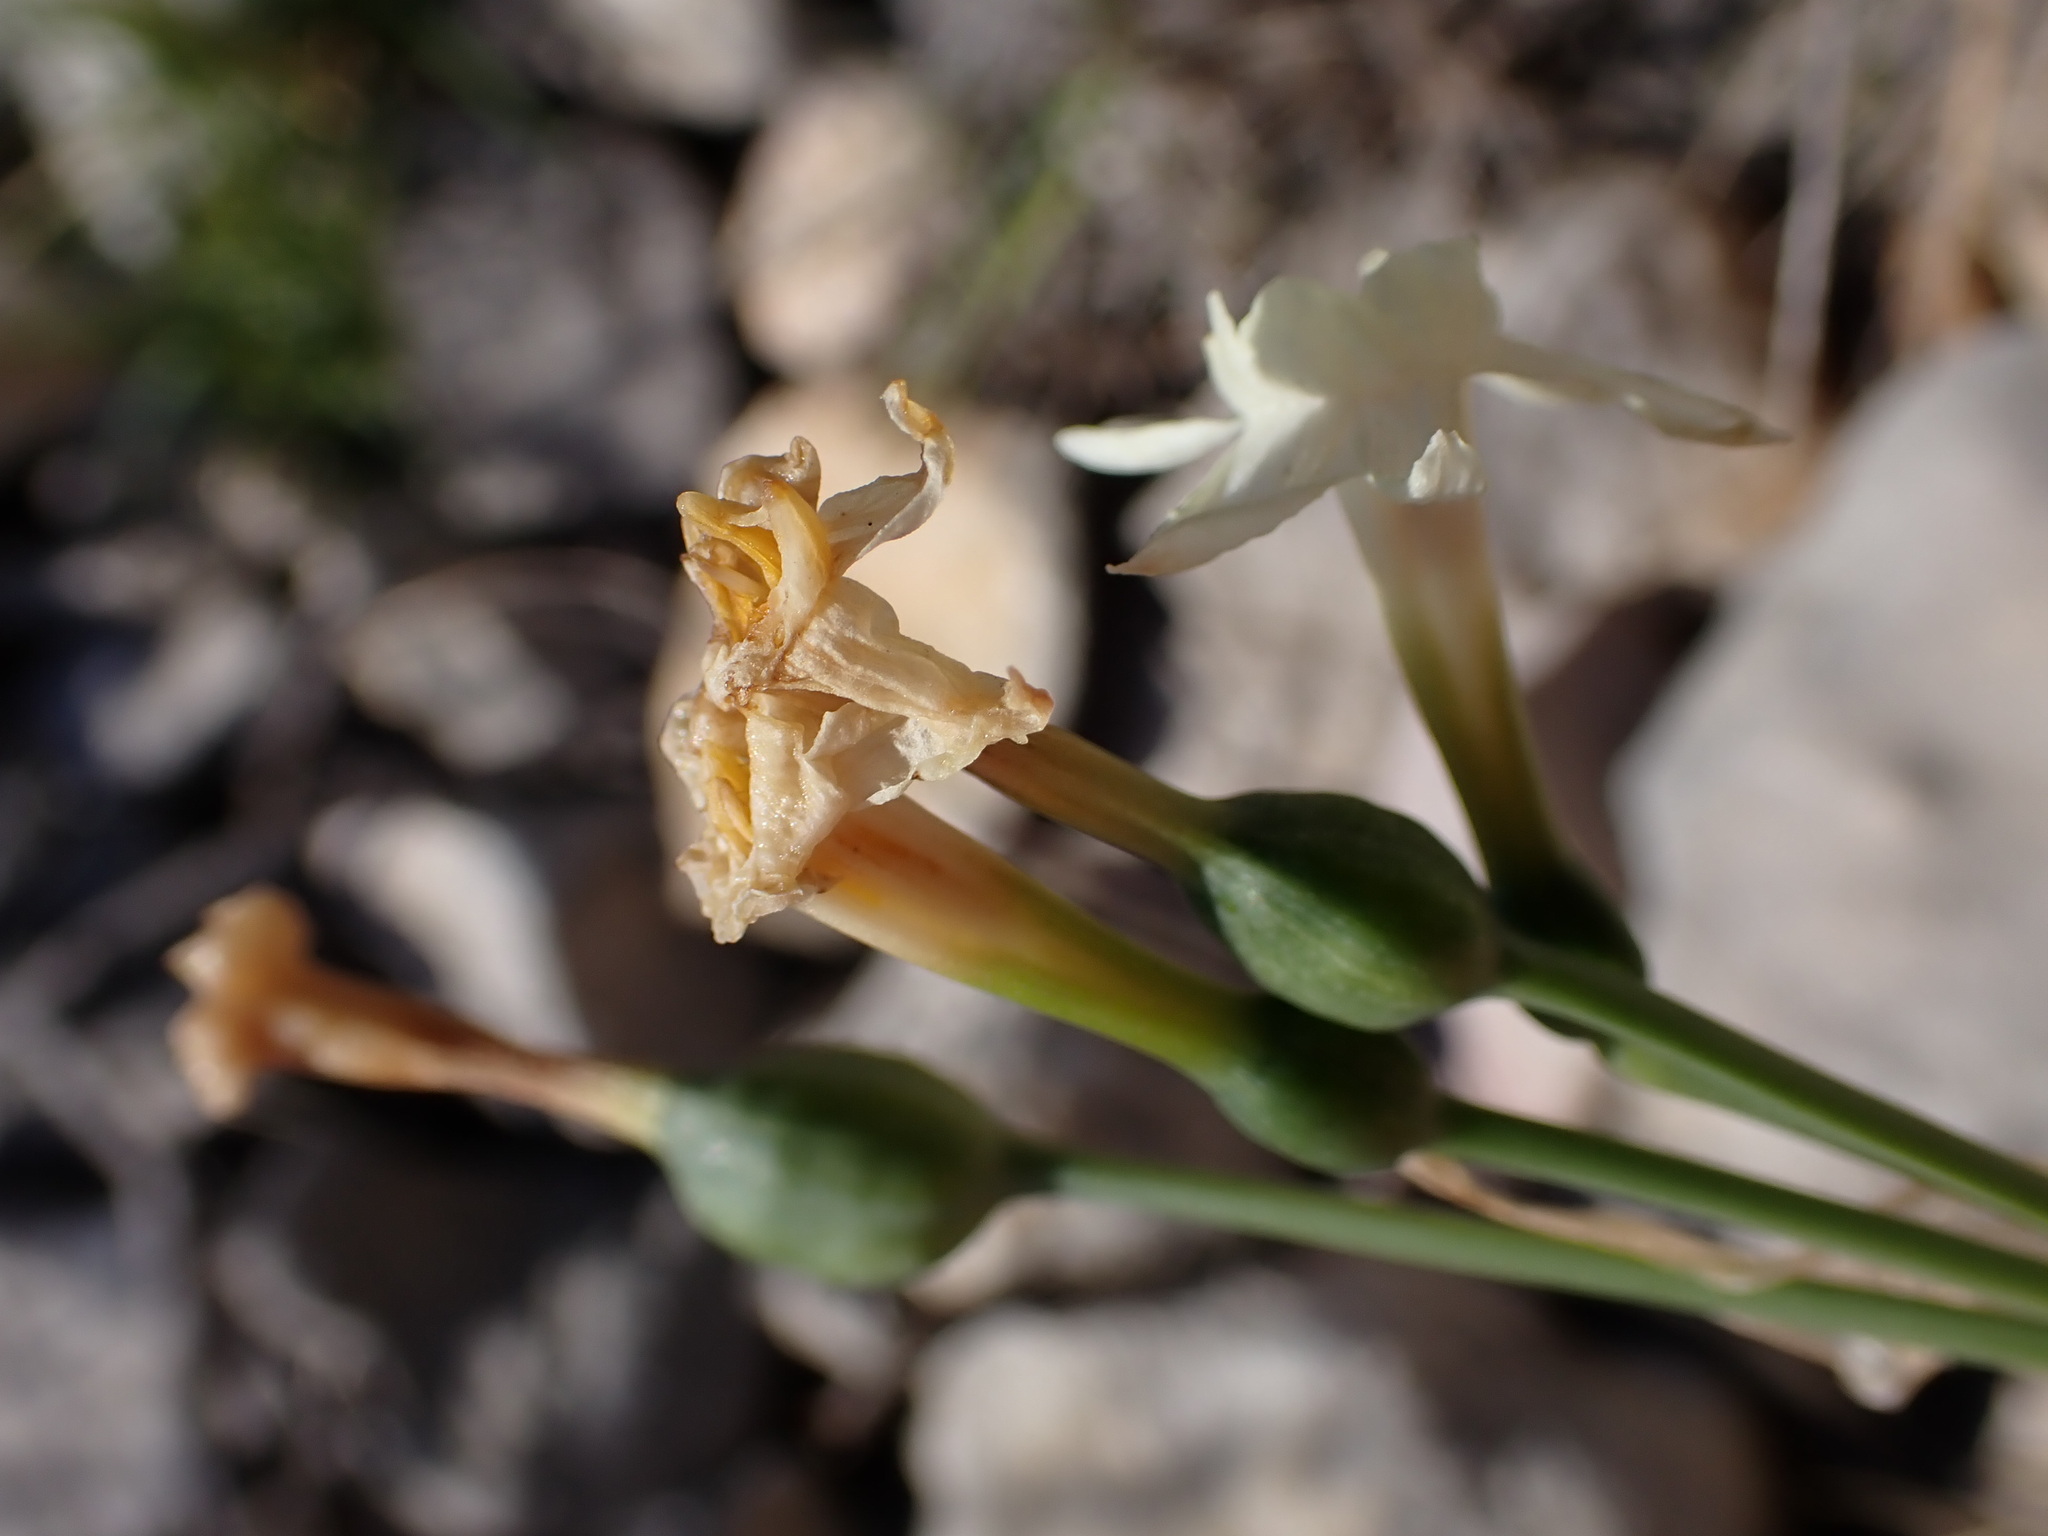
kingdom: Plantae
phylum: Tracheophyta
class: Liliopsida
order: Asparagales
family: Amaryllidaceae
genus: Narcissus
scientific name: Narcissus dubius
